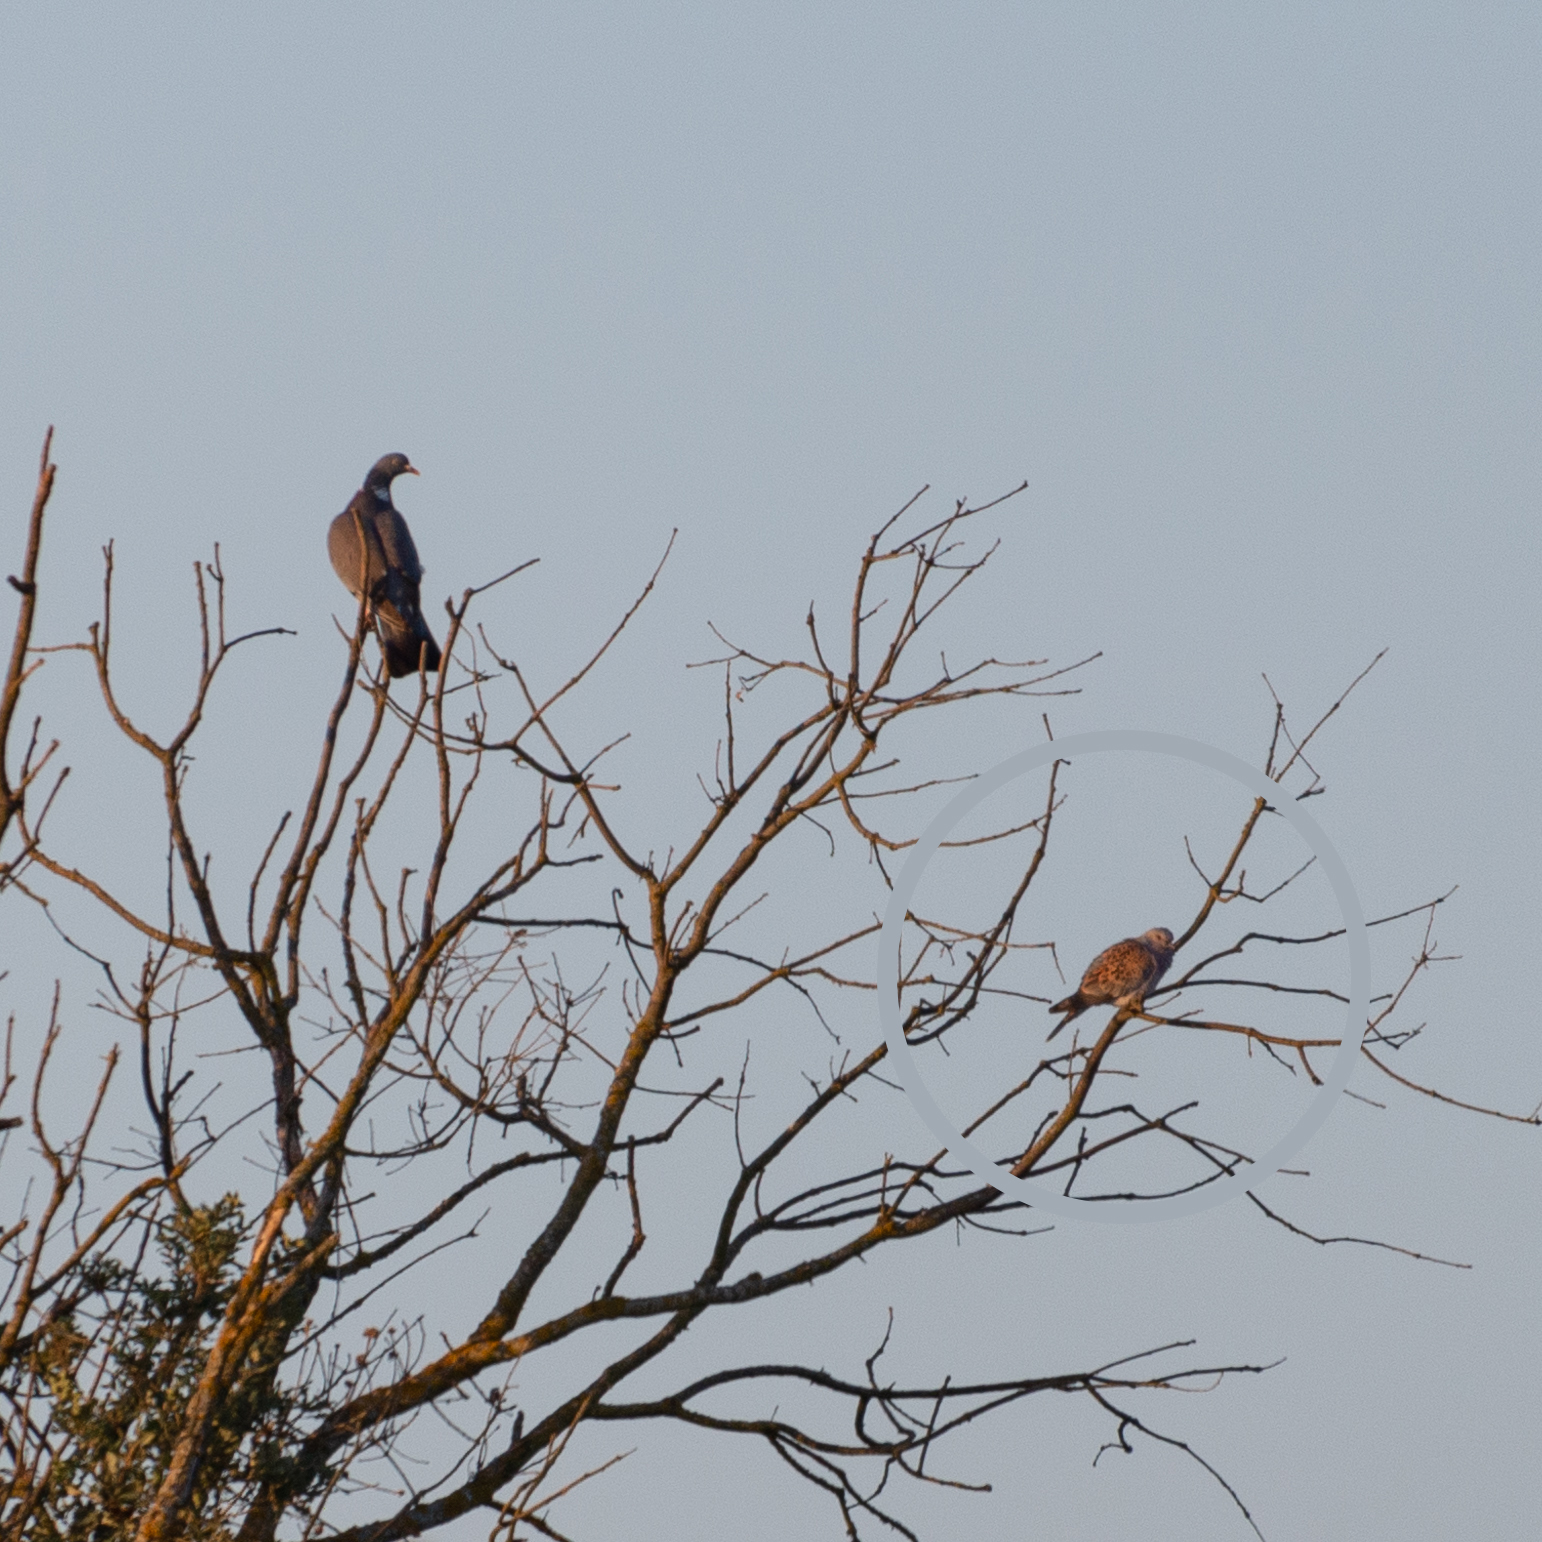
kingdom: Animalia
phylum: Chordata
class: Aves
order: Columbiformes
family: Columbidae
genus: Streptopelia
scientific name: Streptopelia turtur
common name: European turtle dove
